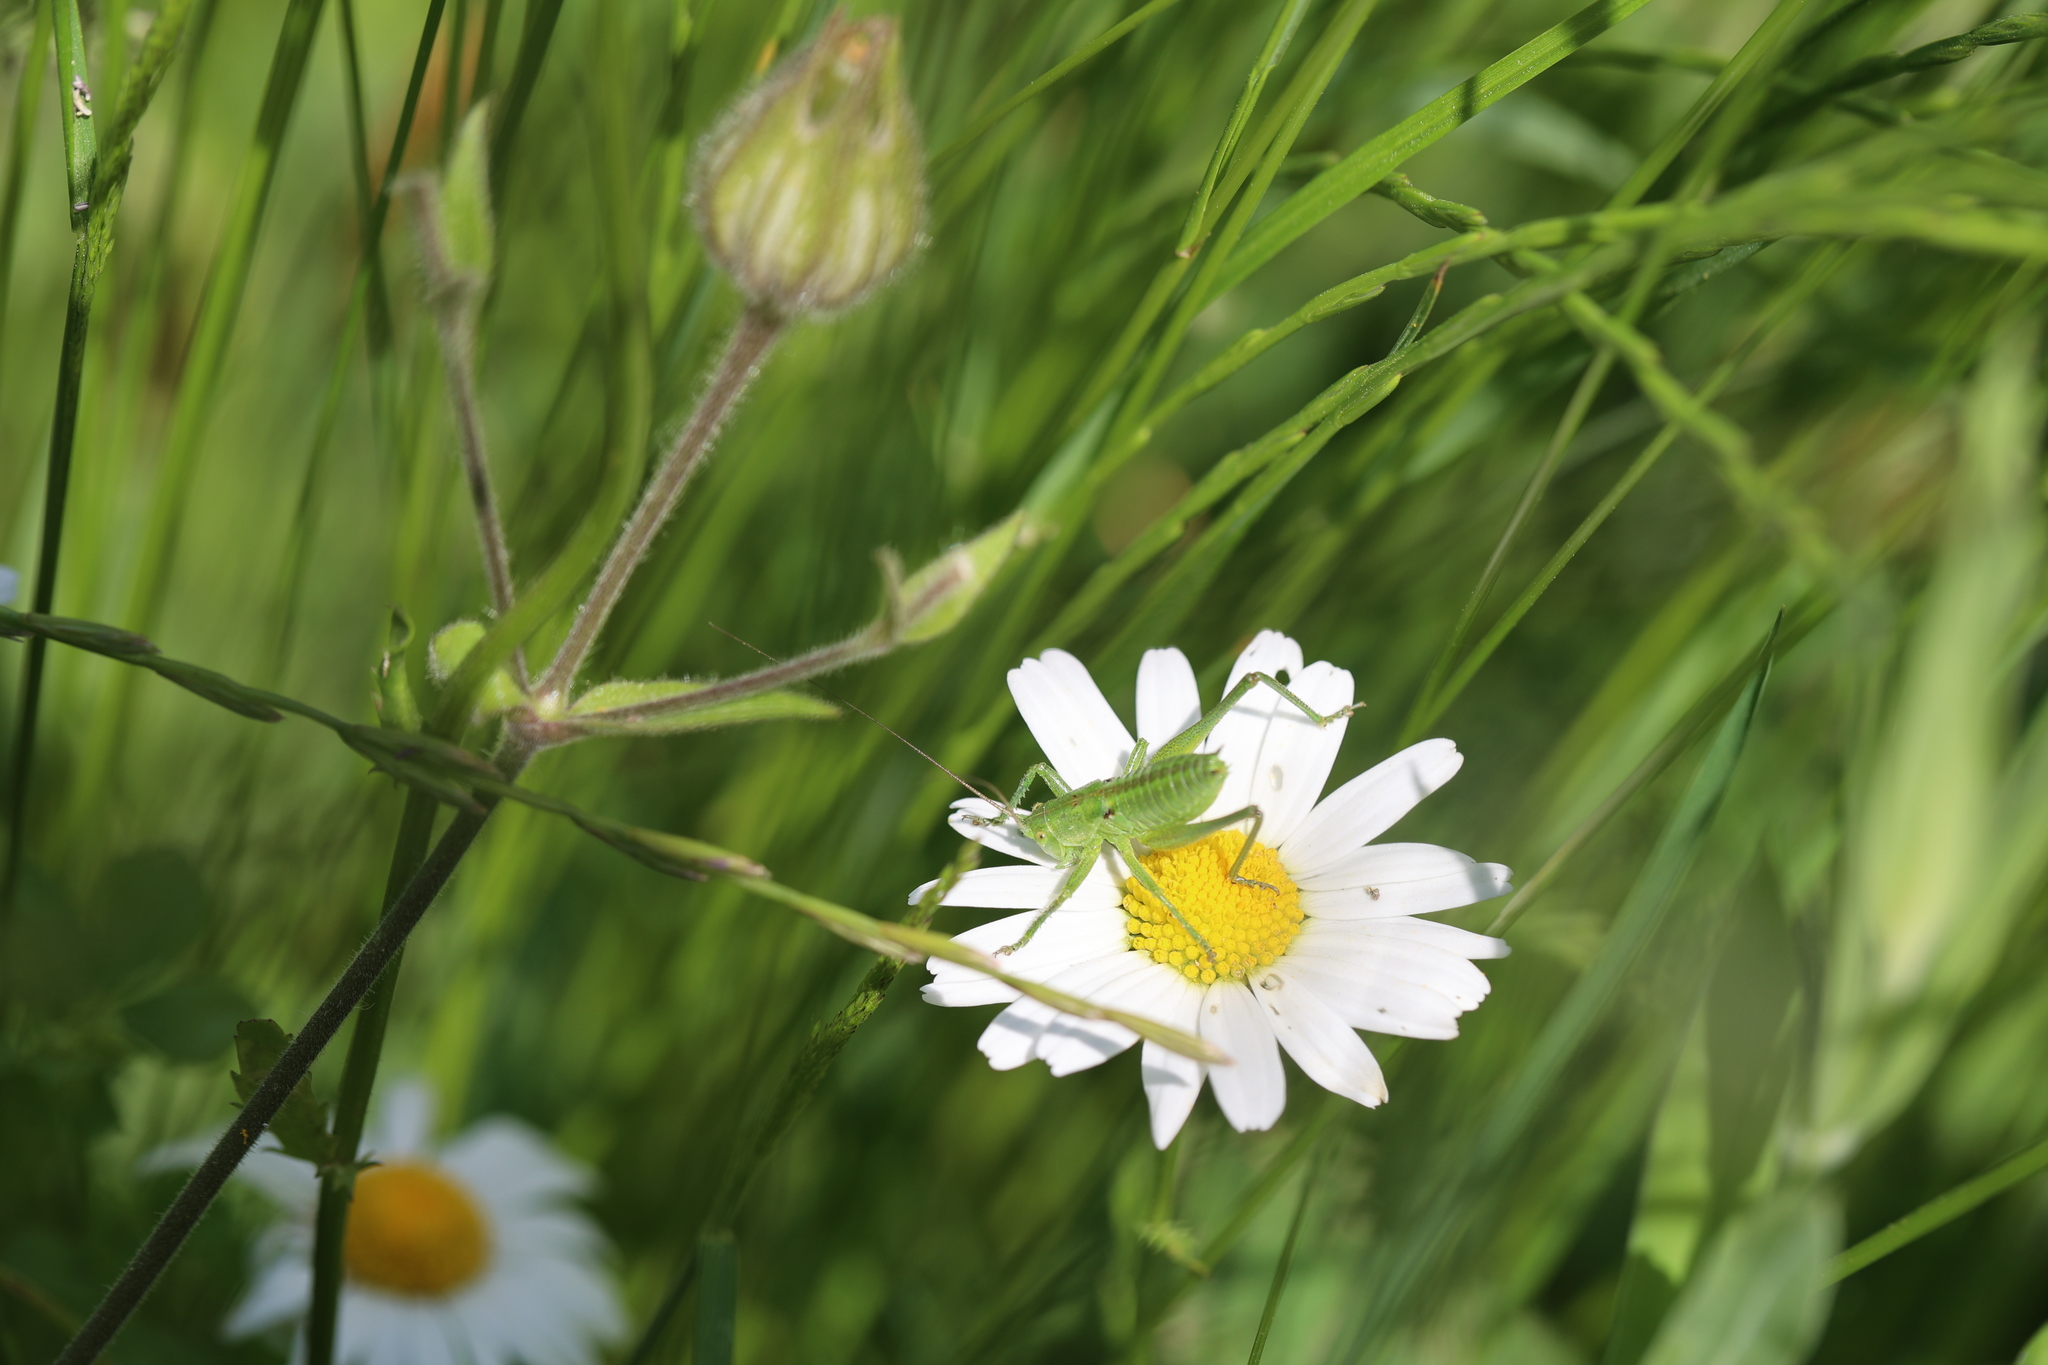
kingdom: Animalia
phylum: Arthropoda
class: Insecta
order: Orthoptera
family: Tettigoniidae
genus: Tettigonia
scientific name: Tettigonia viridissima
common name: Great green bush-cricket
